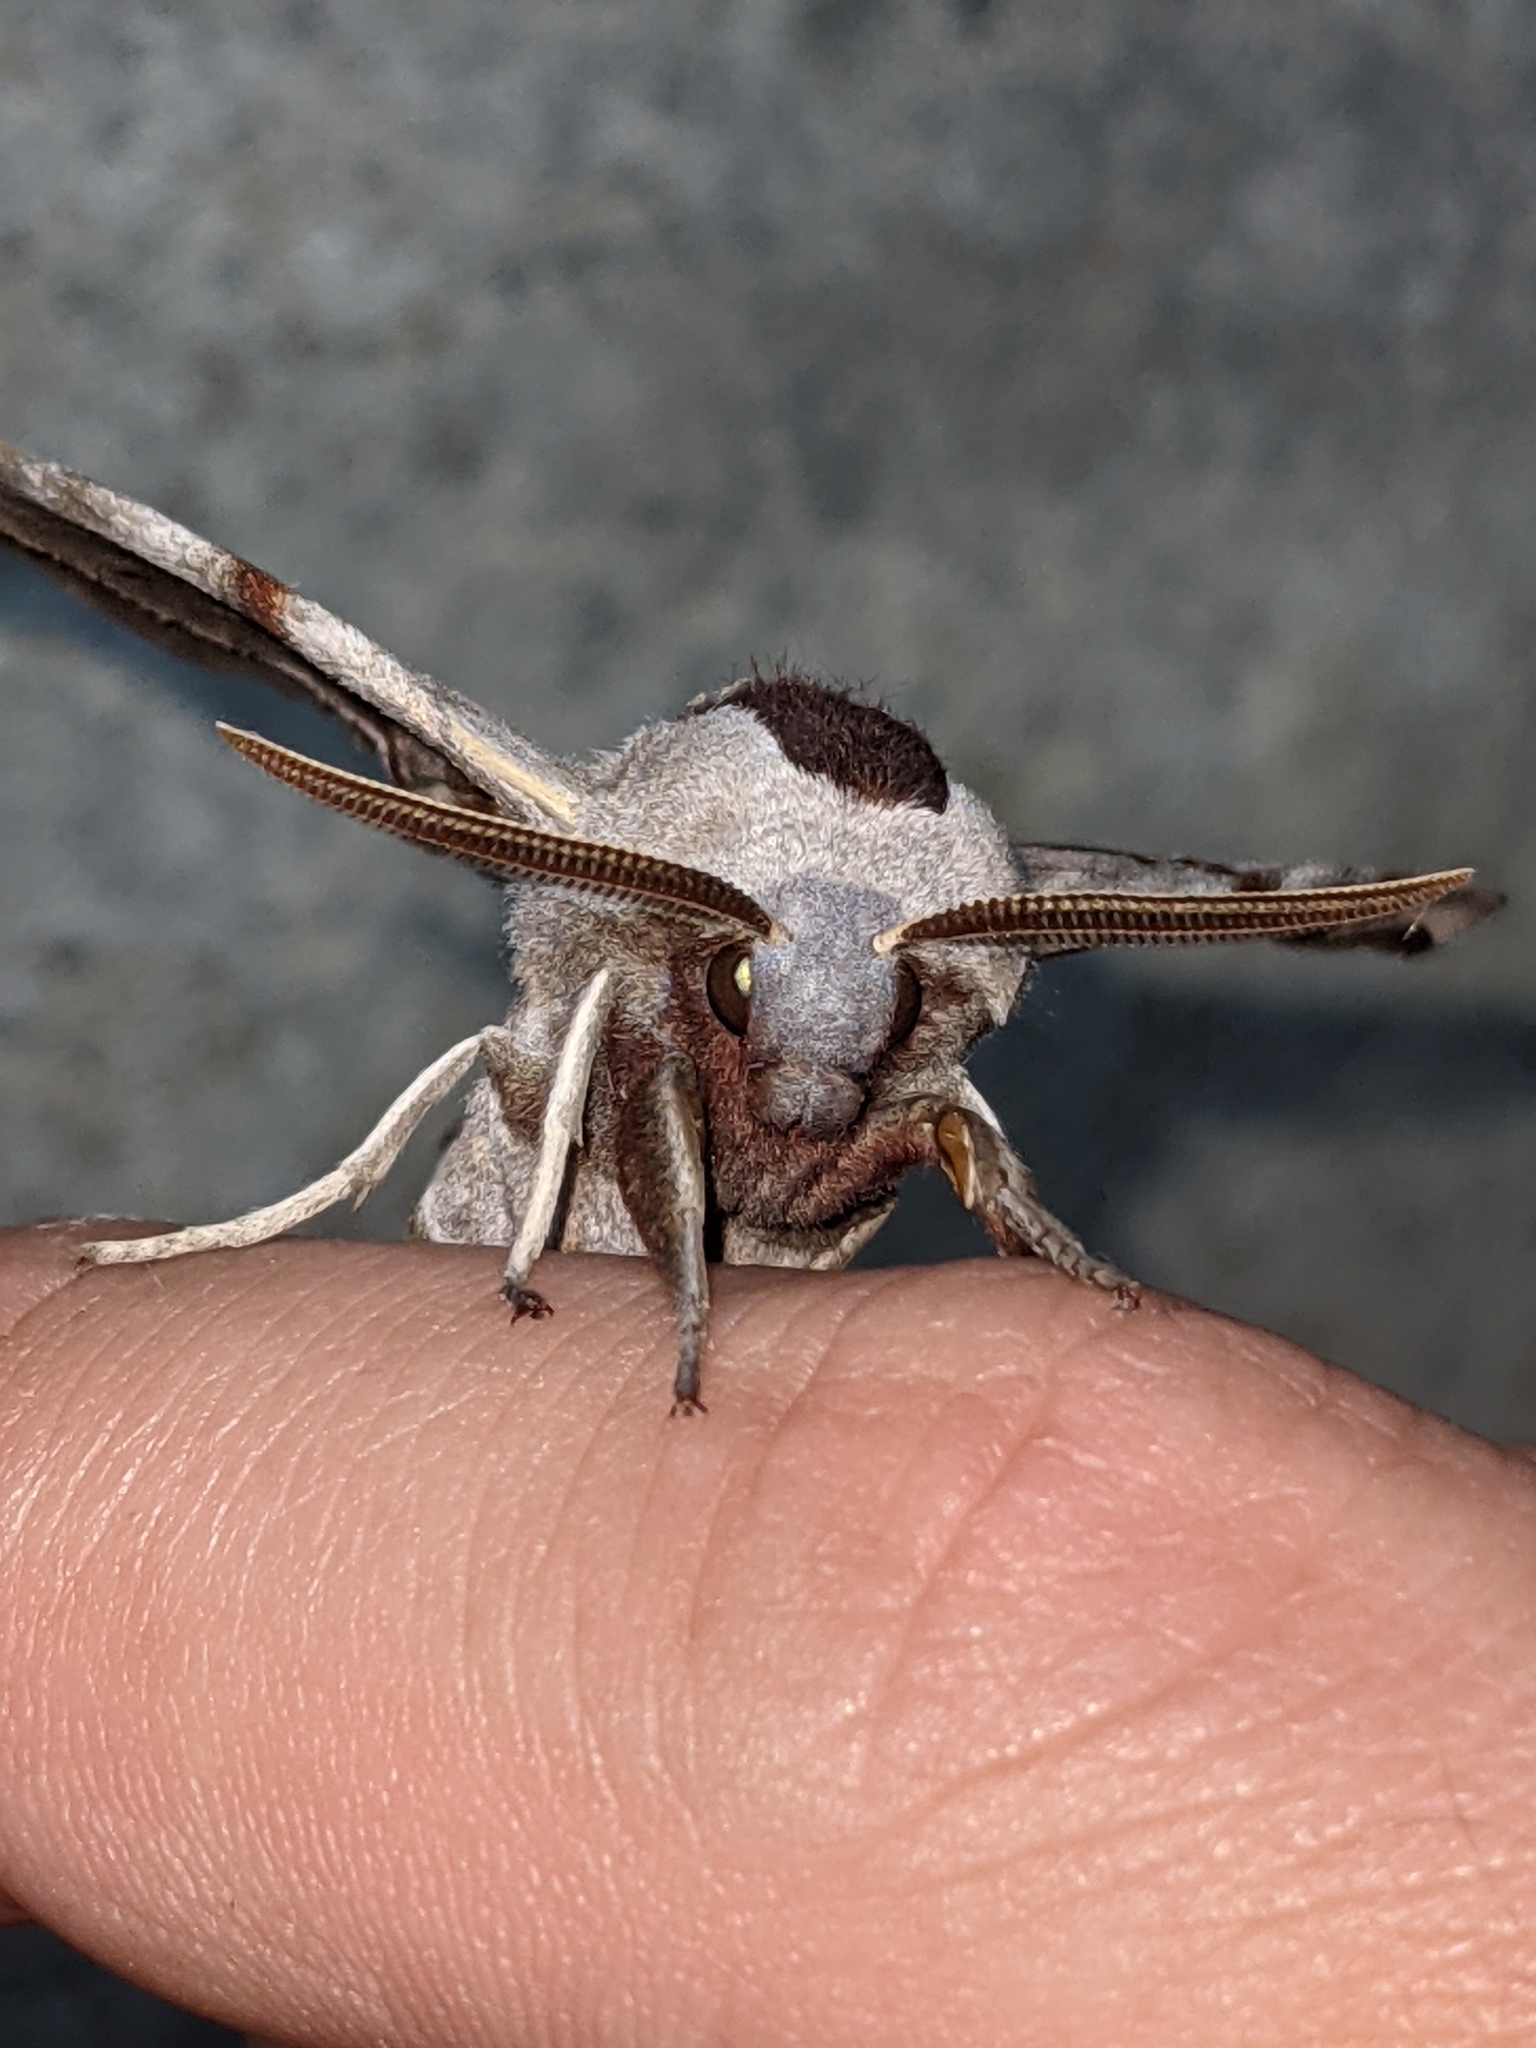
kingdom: Animalia
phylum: Arthropoda
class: Insecta
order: Lepidoptera
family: Sphingidae
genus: Smerinthus
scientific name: Smerinthus jamaicensis
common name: Twin spotted sphinx
